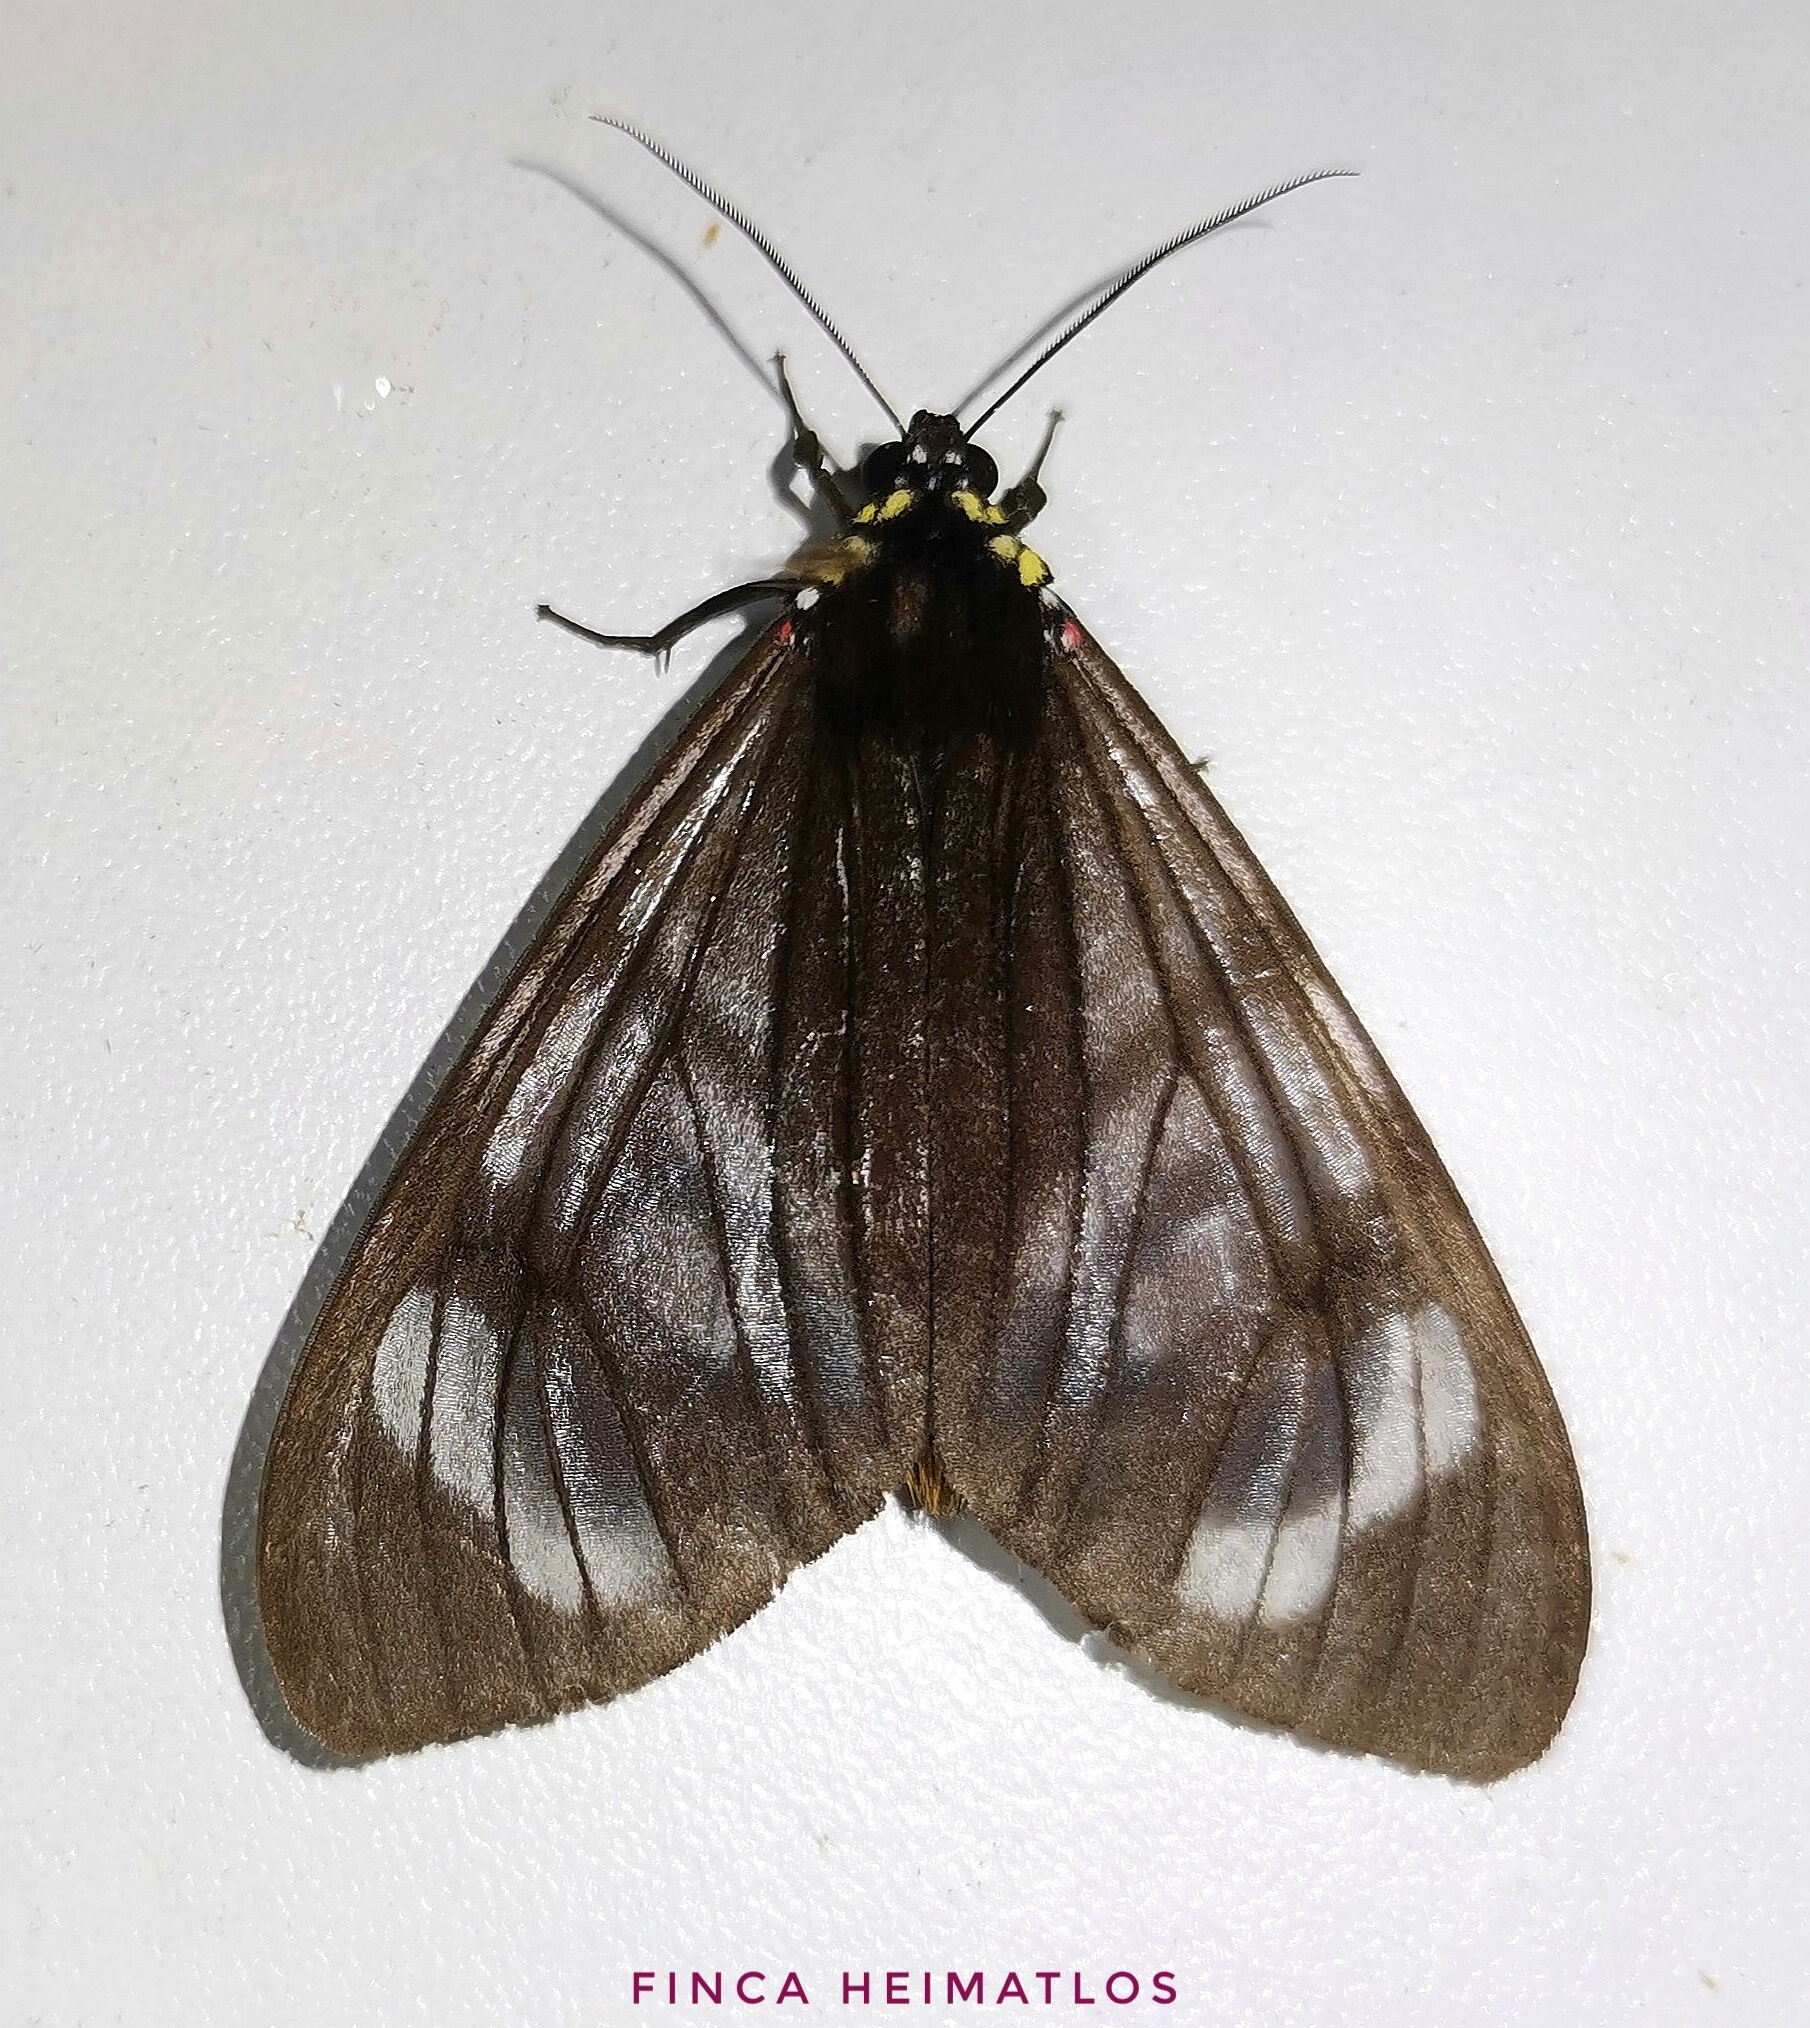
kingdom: Animalia
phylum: Arthropoda
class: Insecta
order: Lepidoptera
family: Erebidae
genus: Dysschema
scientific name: Dysschema jansonis
